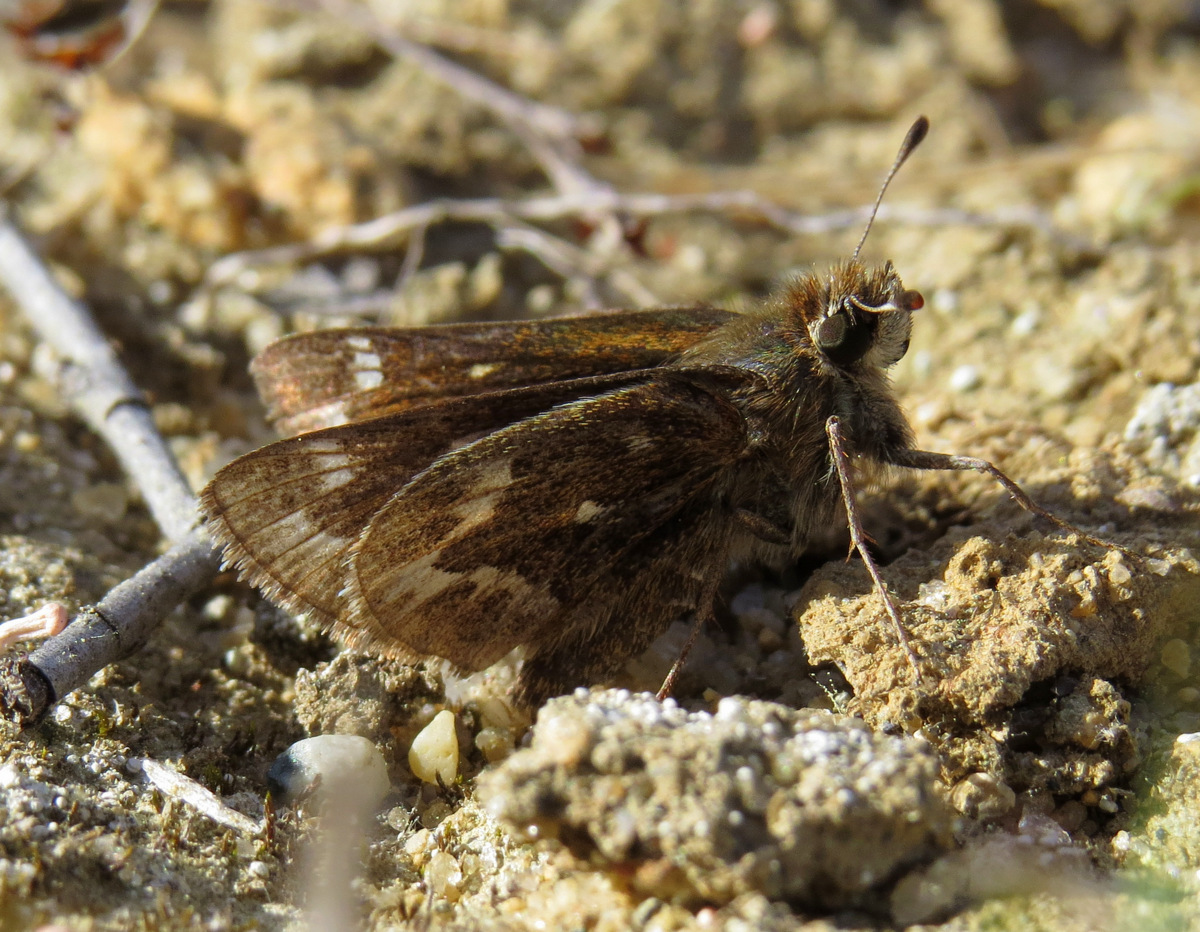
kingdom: Animalia
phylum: Arthropoda
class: Insecta
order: Lepidoptera
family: Hesperiidae
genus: Hesperia
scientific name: Hesperia metea
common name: Cobweb skipper
